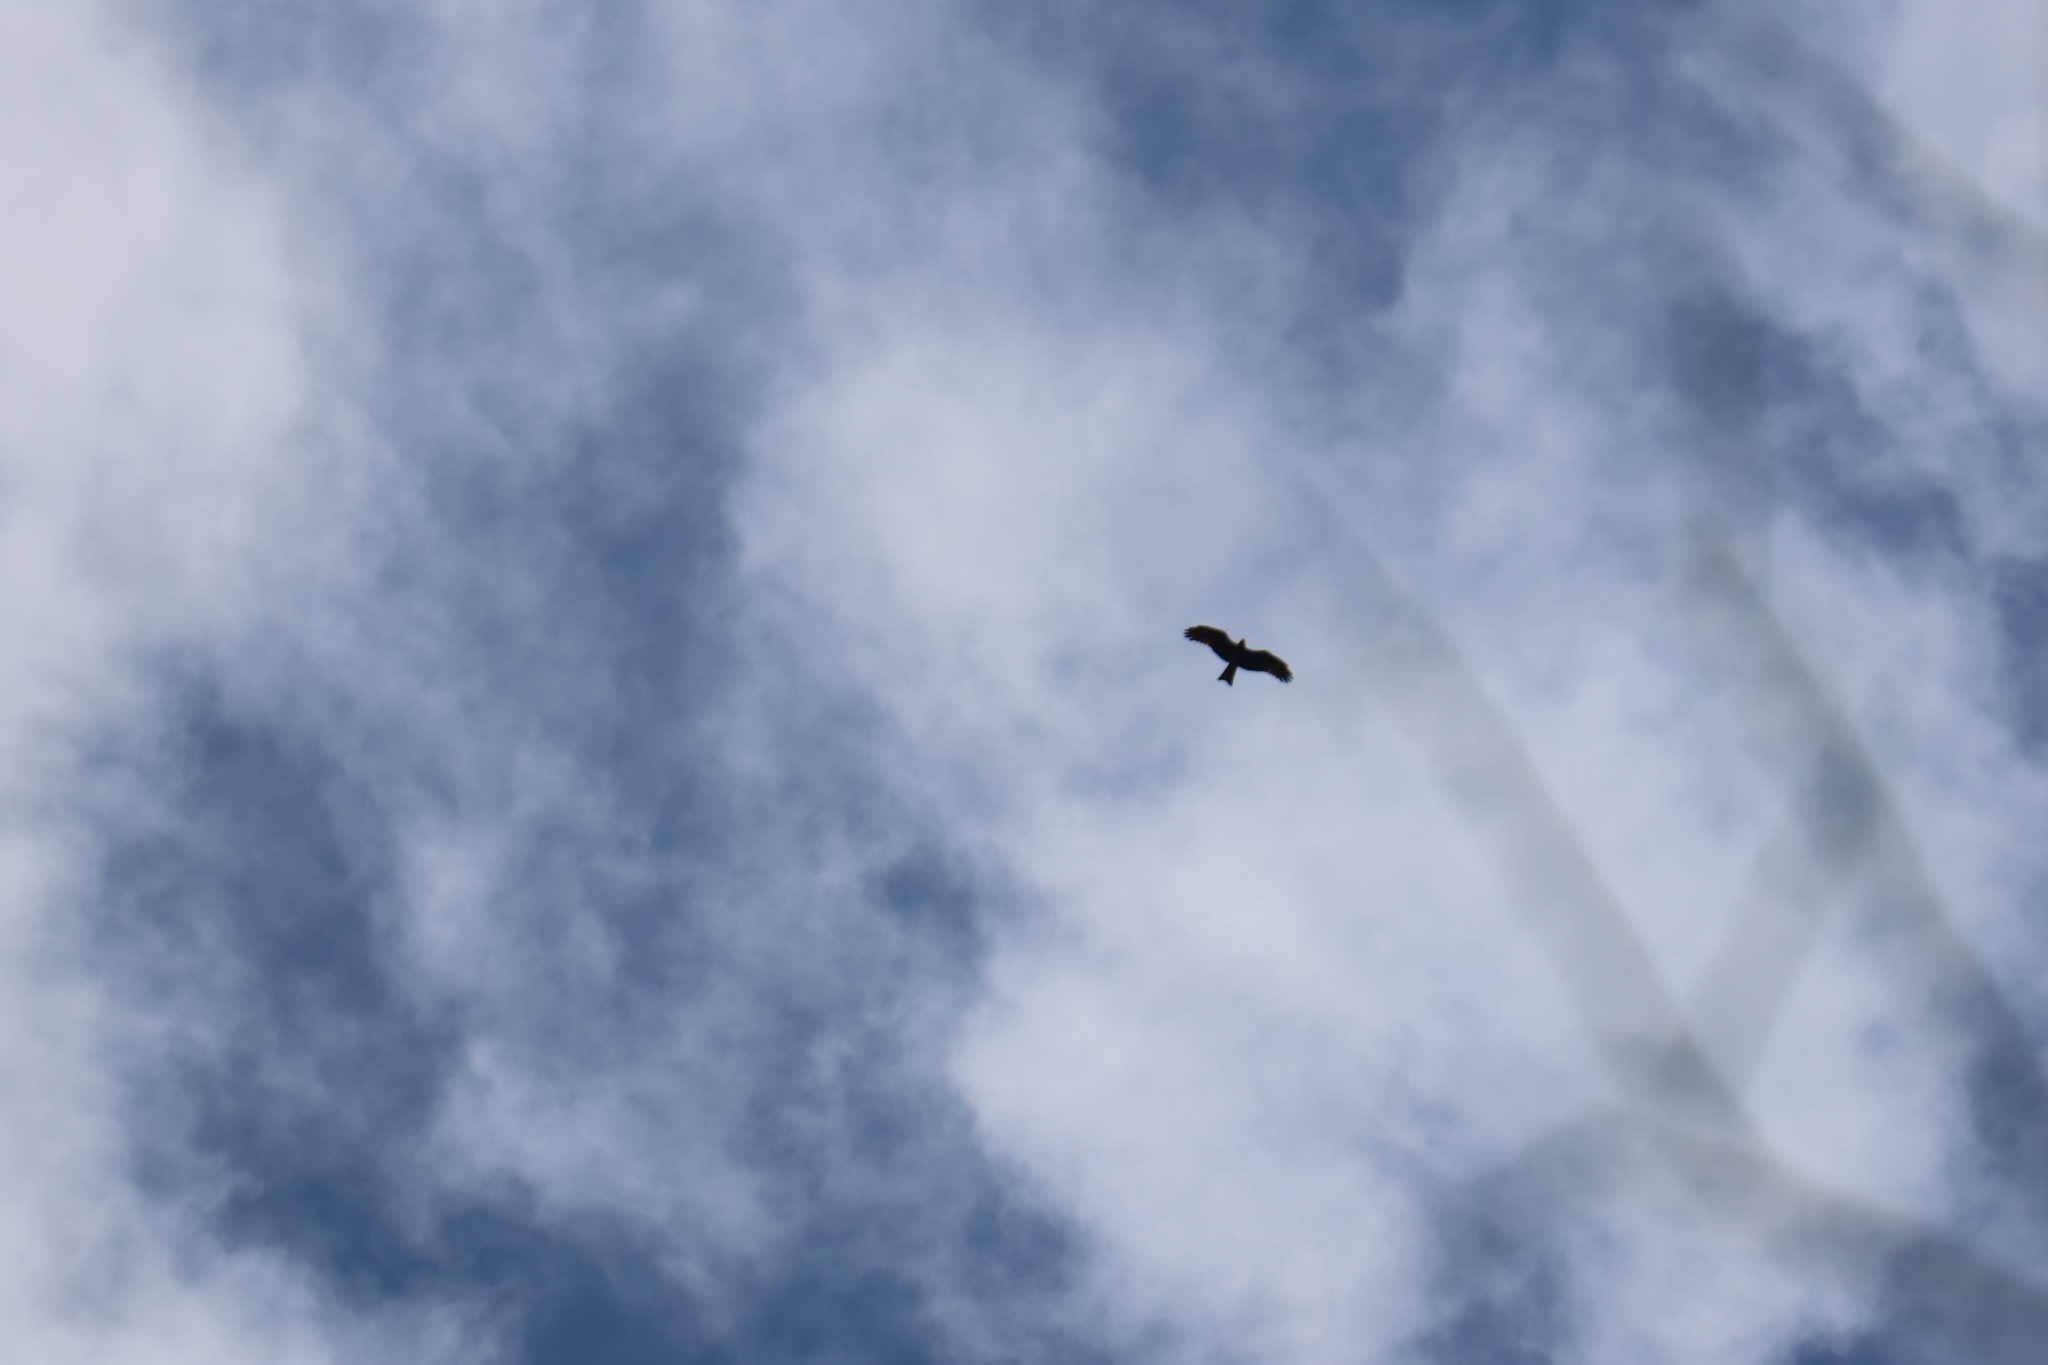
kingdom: Animalia
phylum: Chordata
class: Aves
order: Accipitriformes
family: Accipitridae
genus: Milvus
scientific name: Milvus migrans
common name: Black kite
